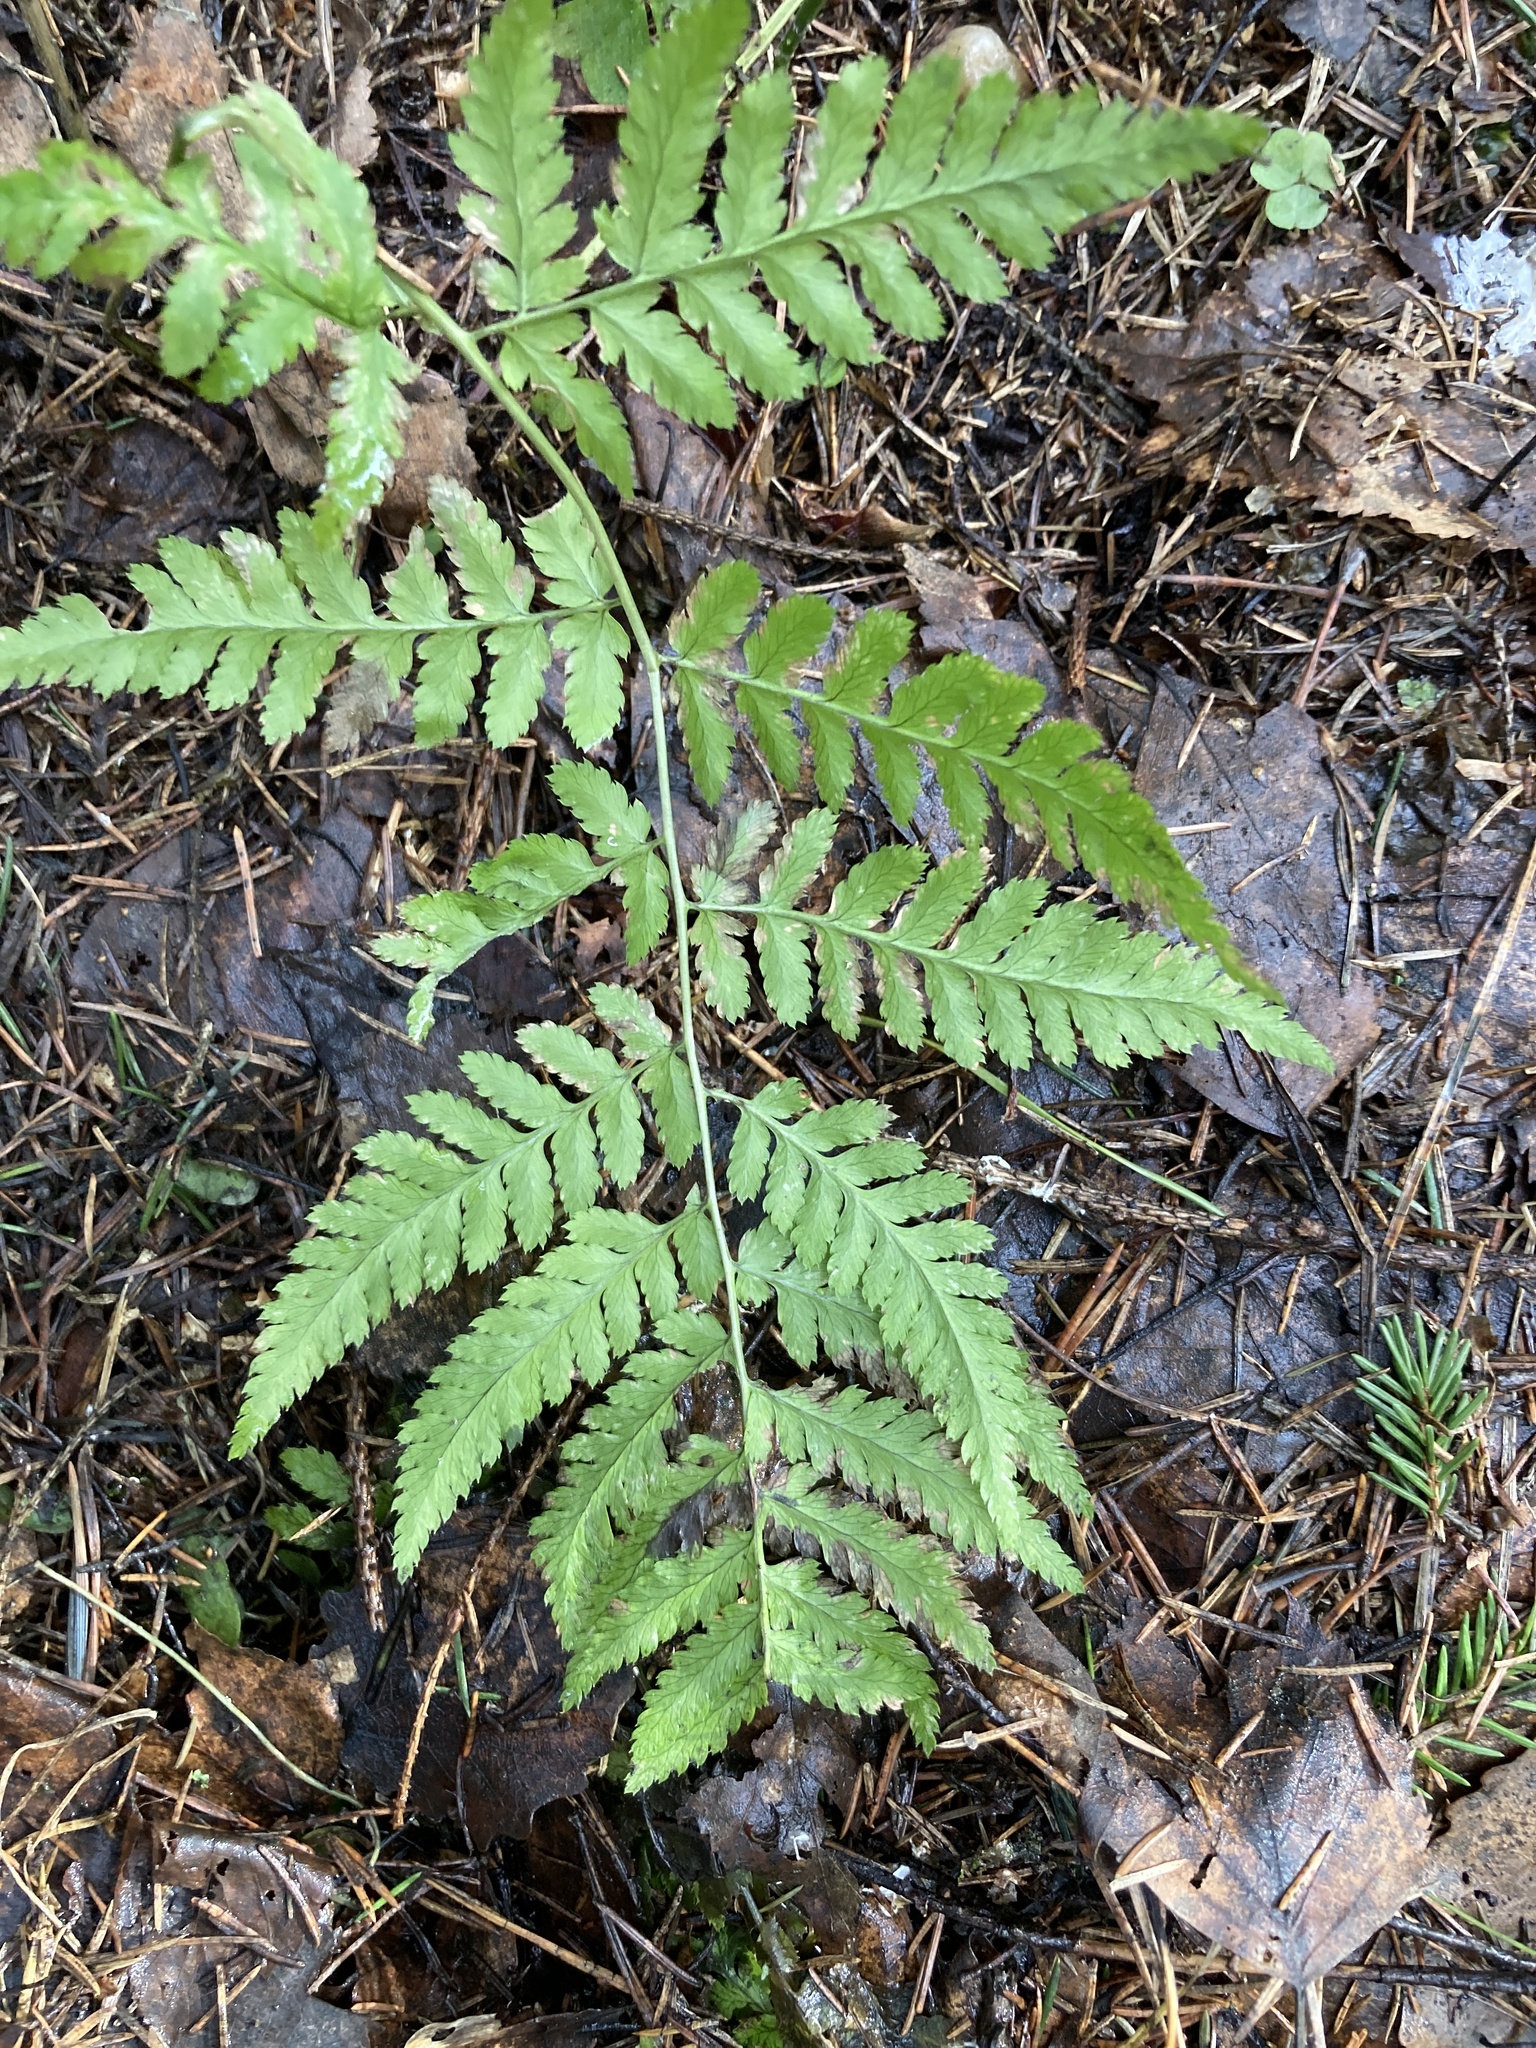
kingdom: Plantae
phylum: Tracheophyta
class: Polypodiopsida
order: Polypodiales
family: Dryopteridaceae
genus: Dryopteris
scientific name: Dryopteris carthusiana
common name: Narrow buckler-fern
